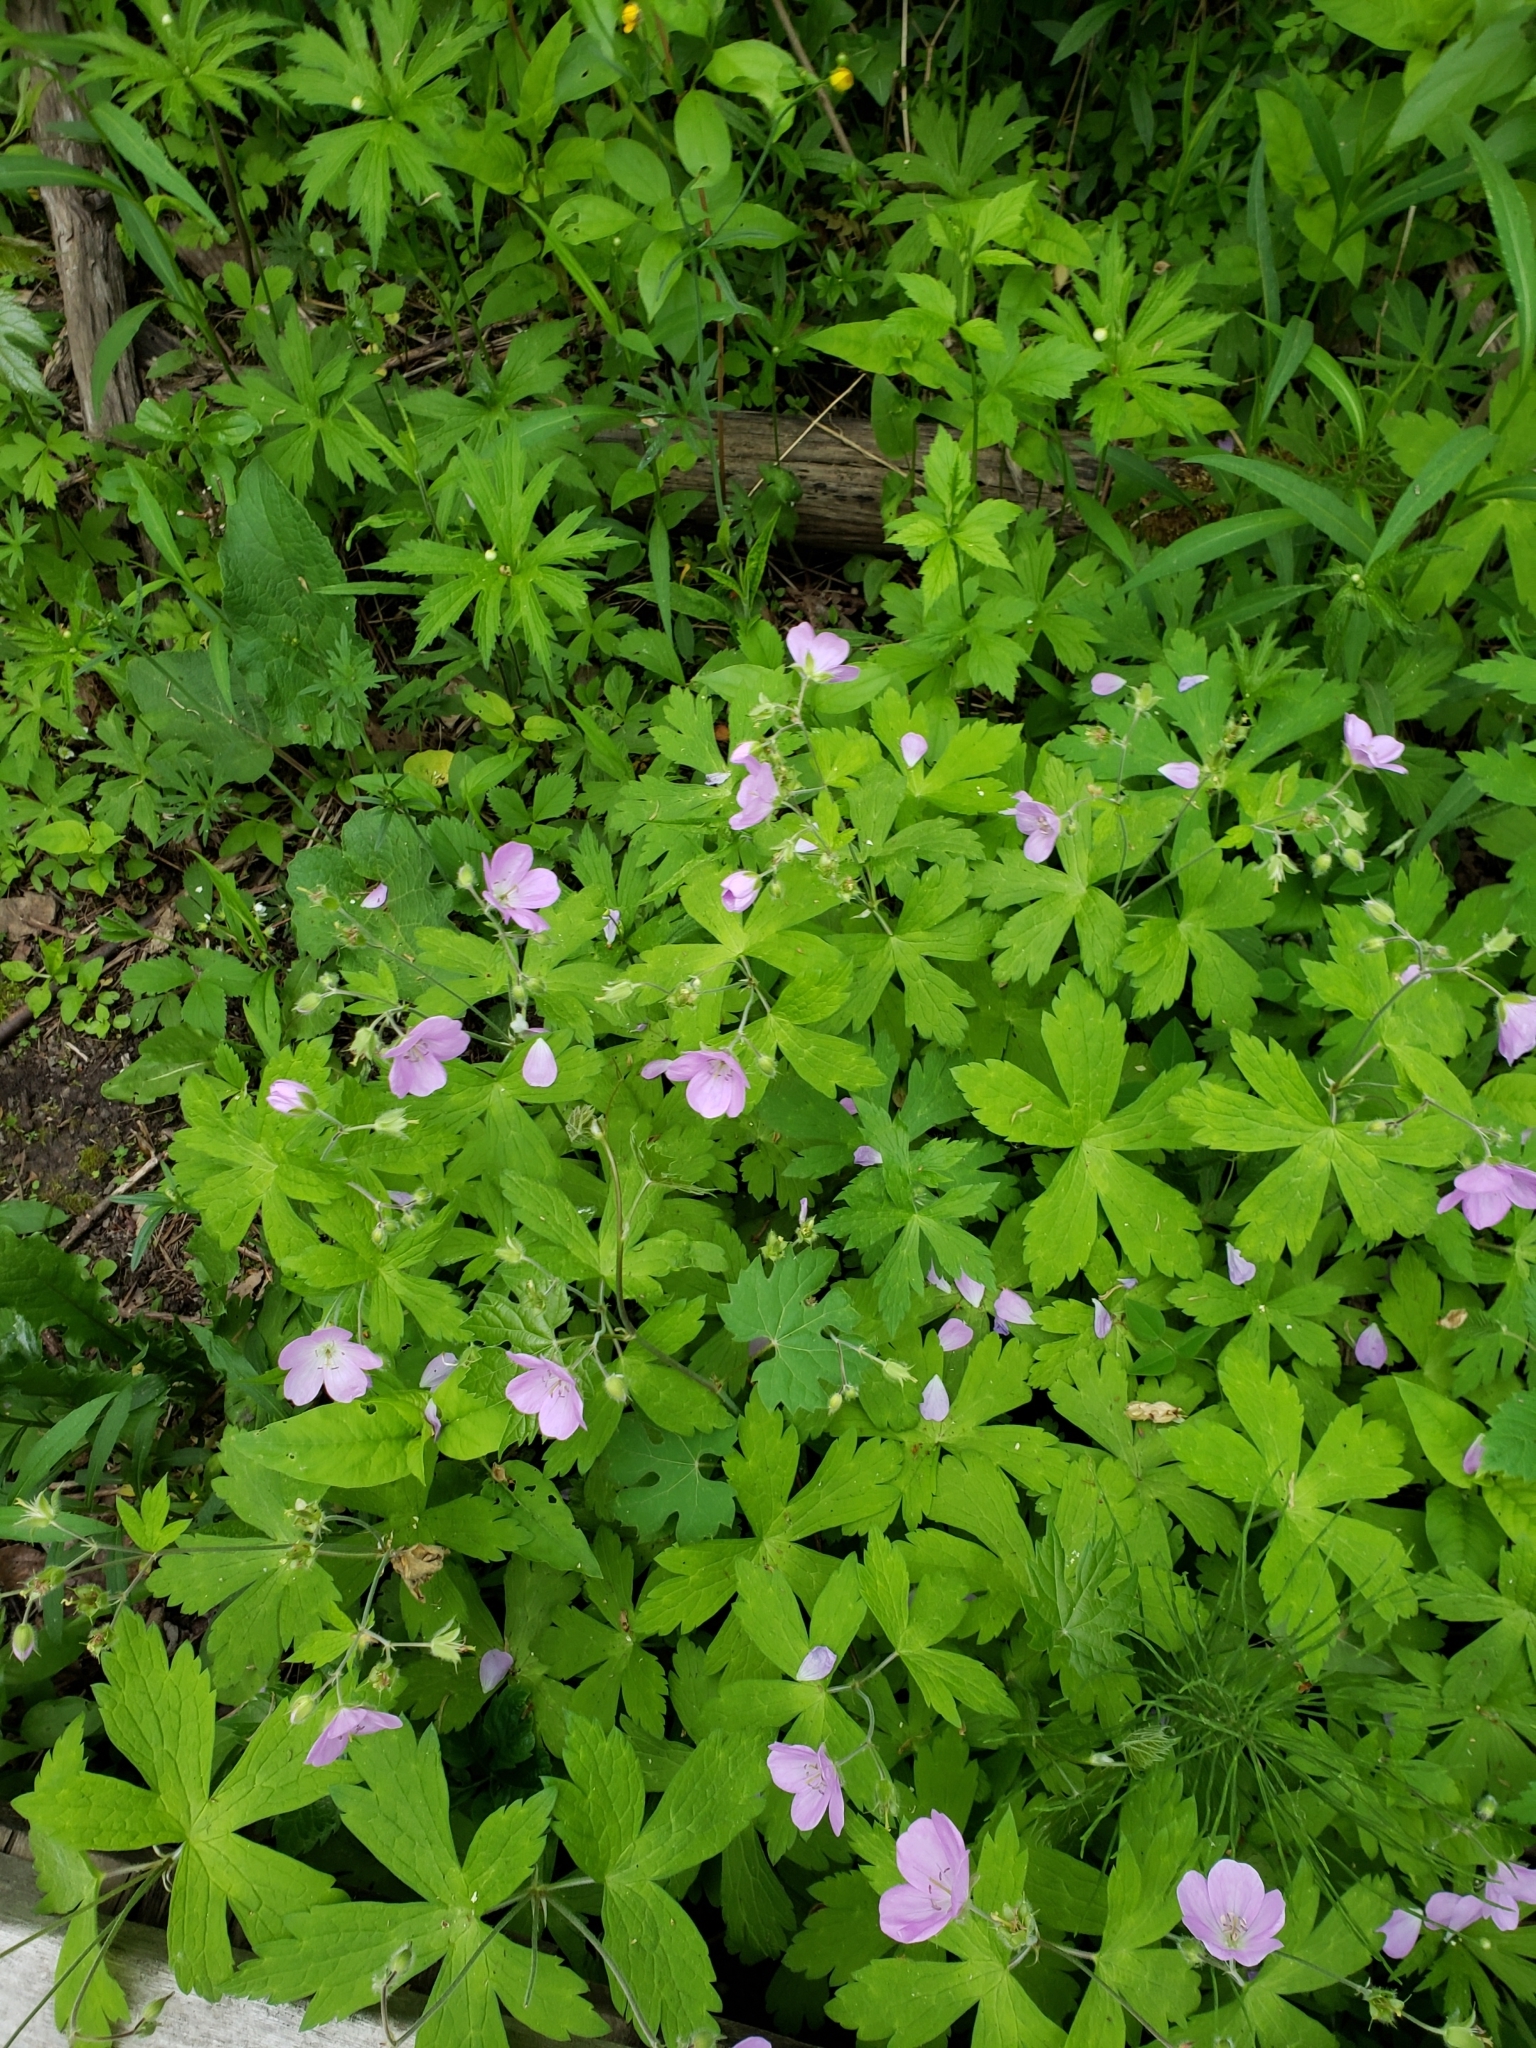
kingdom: Plantae
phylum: Tracheophyta
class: Magnoliopsida
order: Geraniales
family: Geraniaceae
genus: Geranium
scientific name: Geranium maculatum
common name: Spotted geranium
